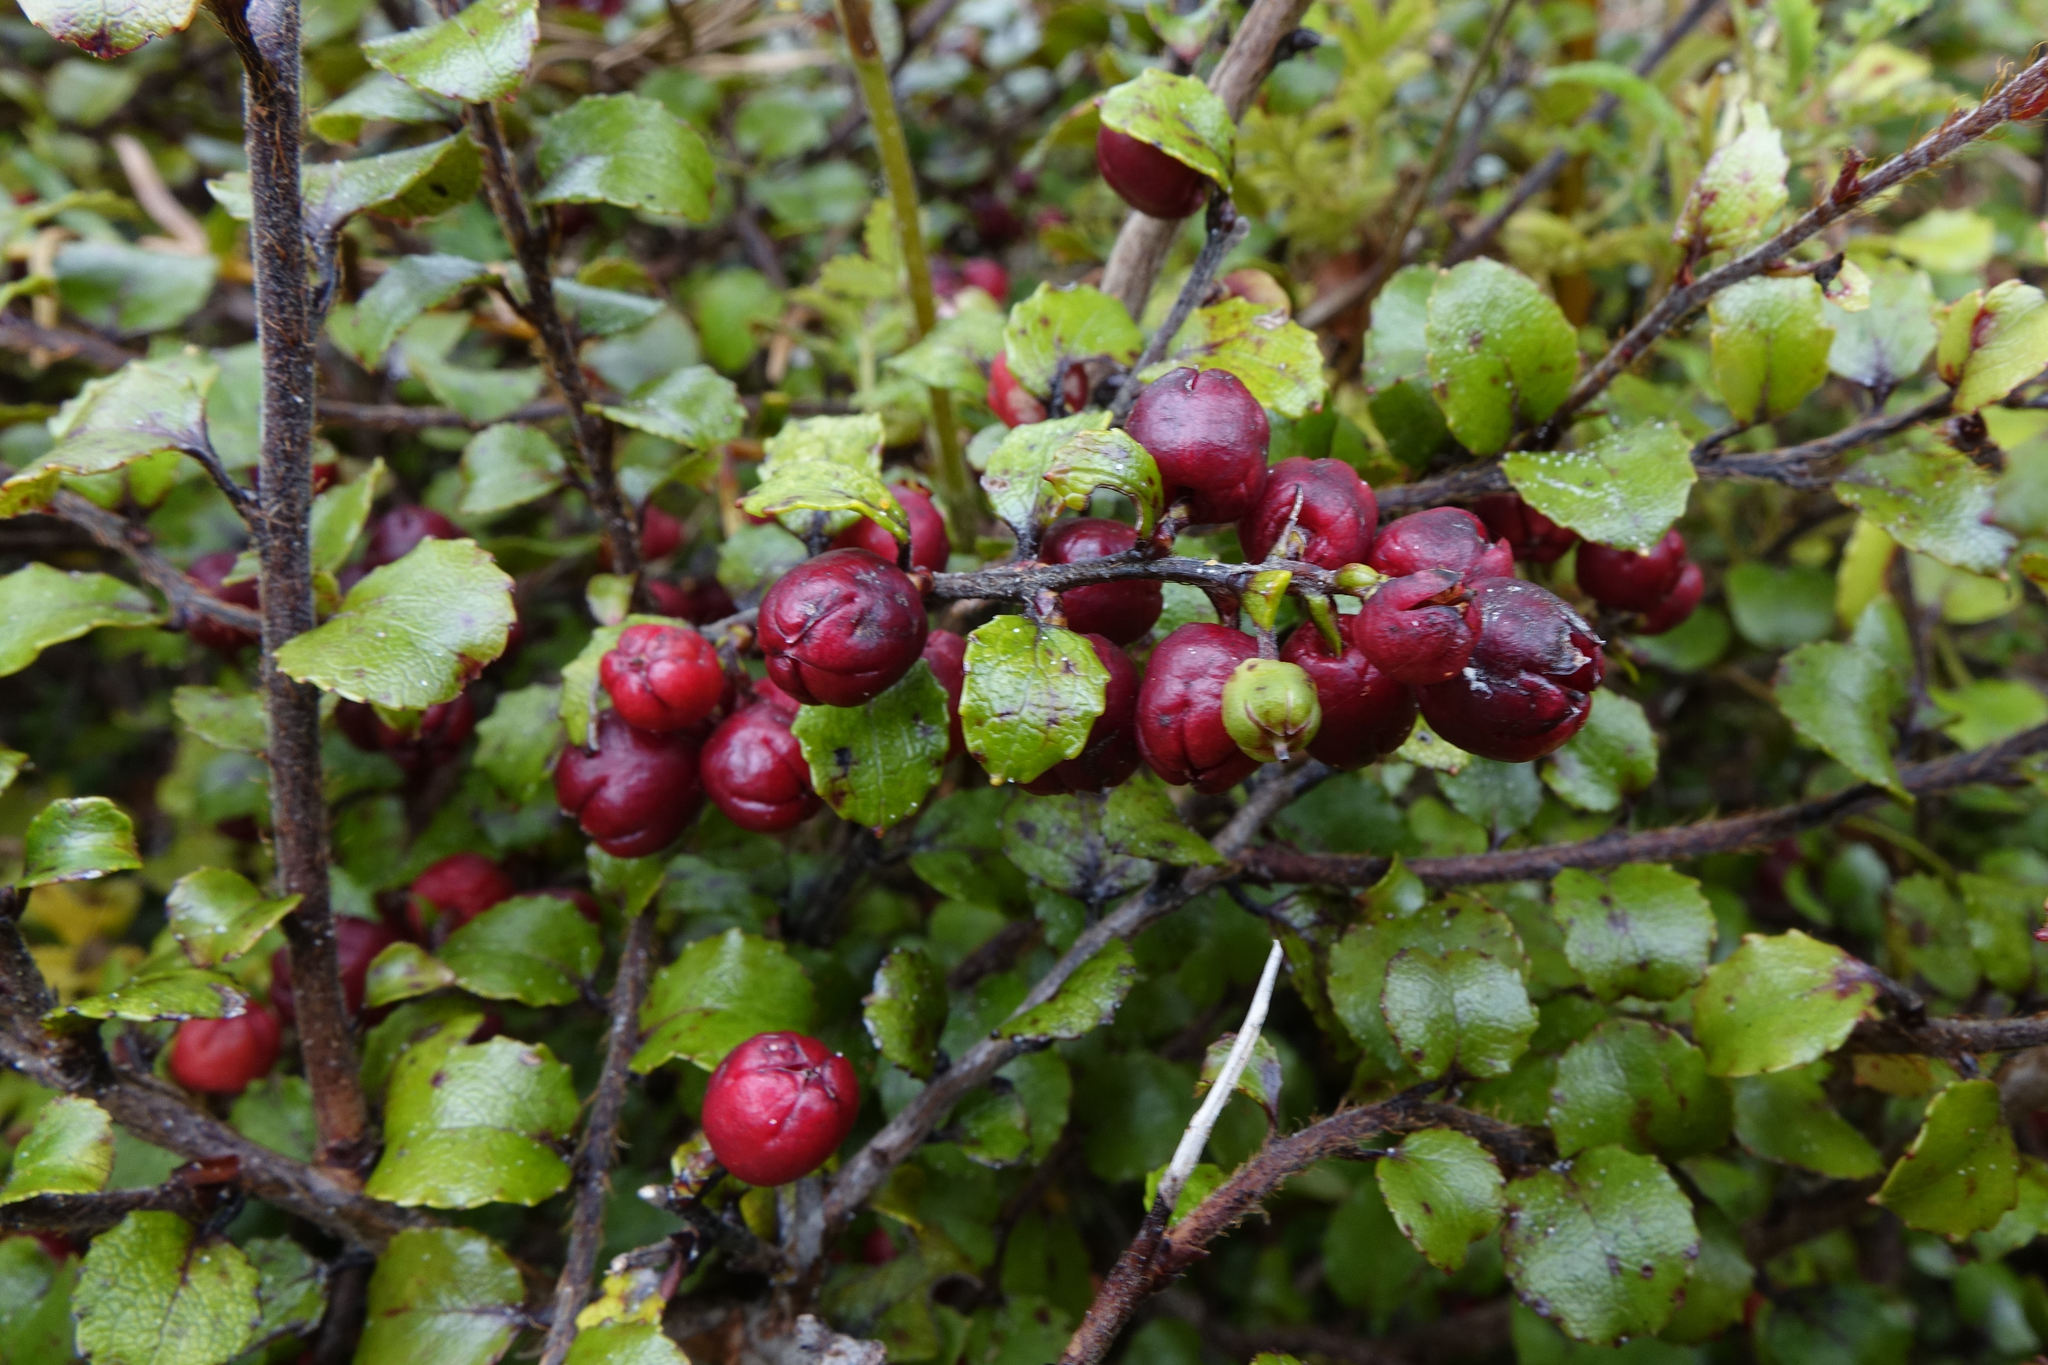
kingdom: Plantae
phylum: Tracheophyta
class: Magnoliopsida
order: Ericales
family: Ericaceae
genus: Gaultheria
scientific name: Gaultheria antipoda
